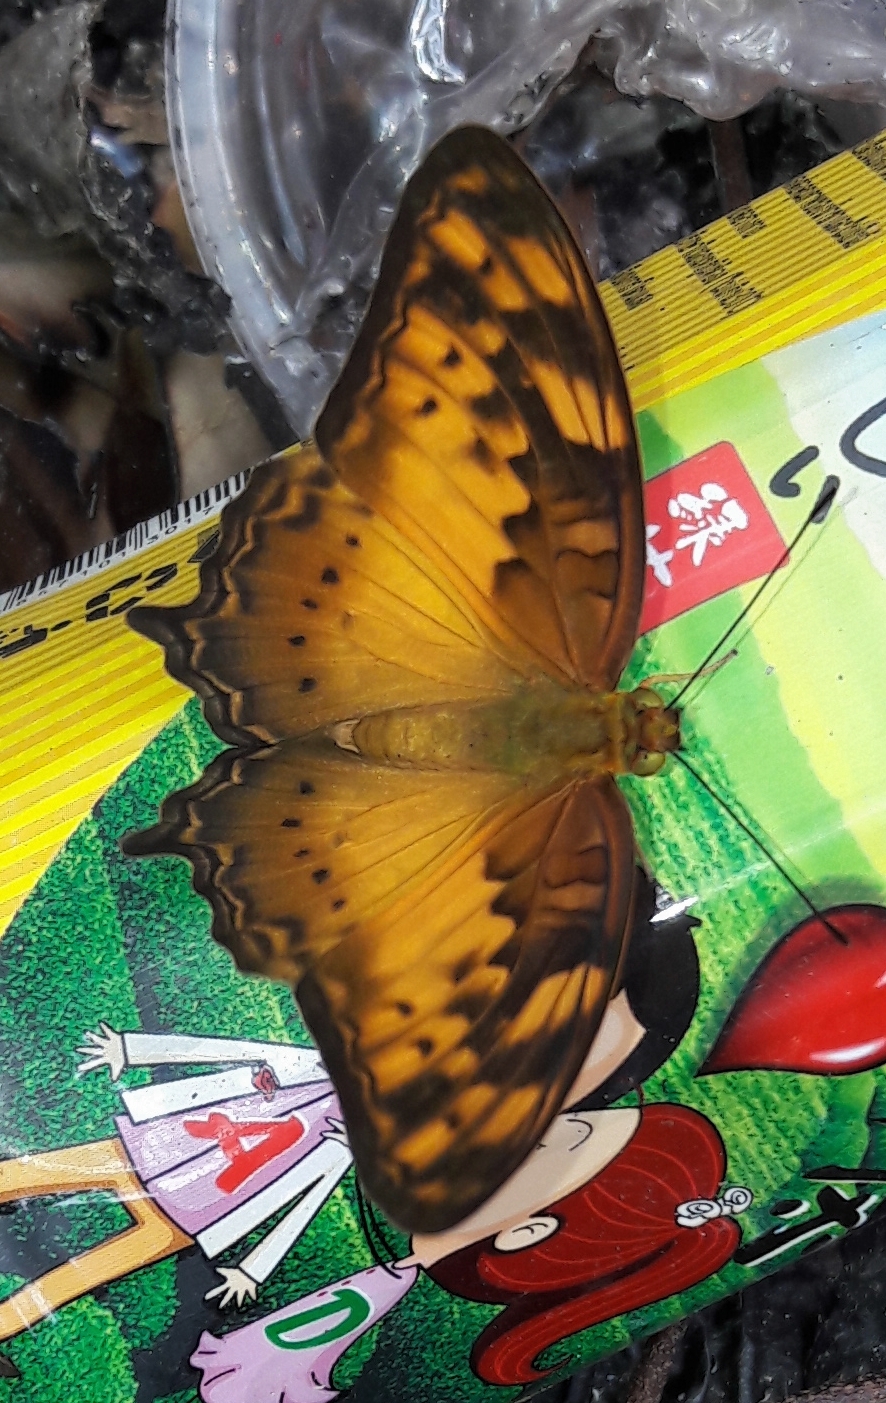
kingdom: Animalia
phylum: Arthropoda
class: Insecta
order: Lepidoptera
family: Nymphalidae
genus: Vagrans
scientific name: Vagrans sinha
